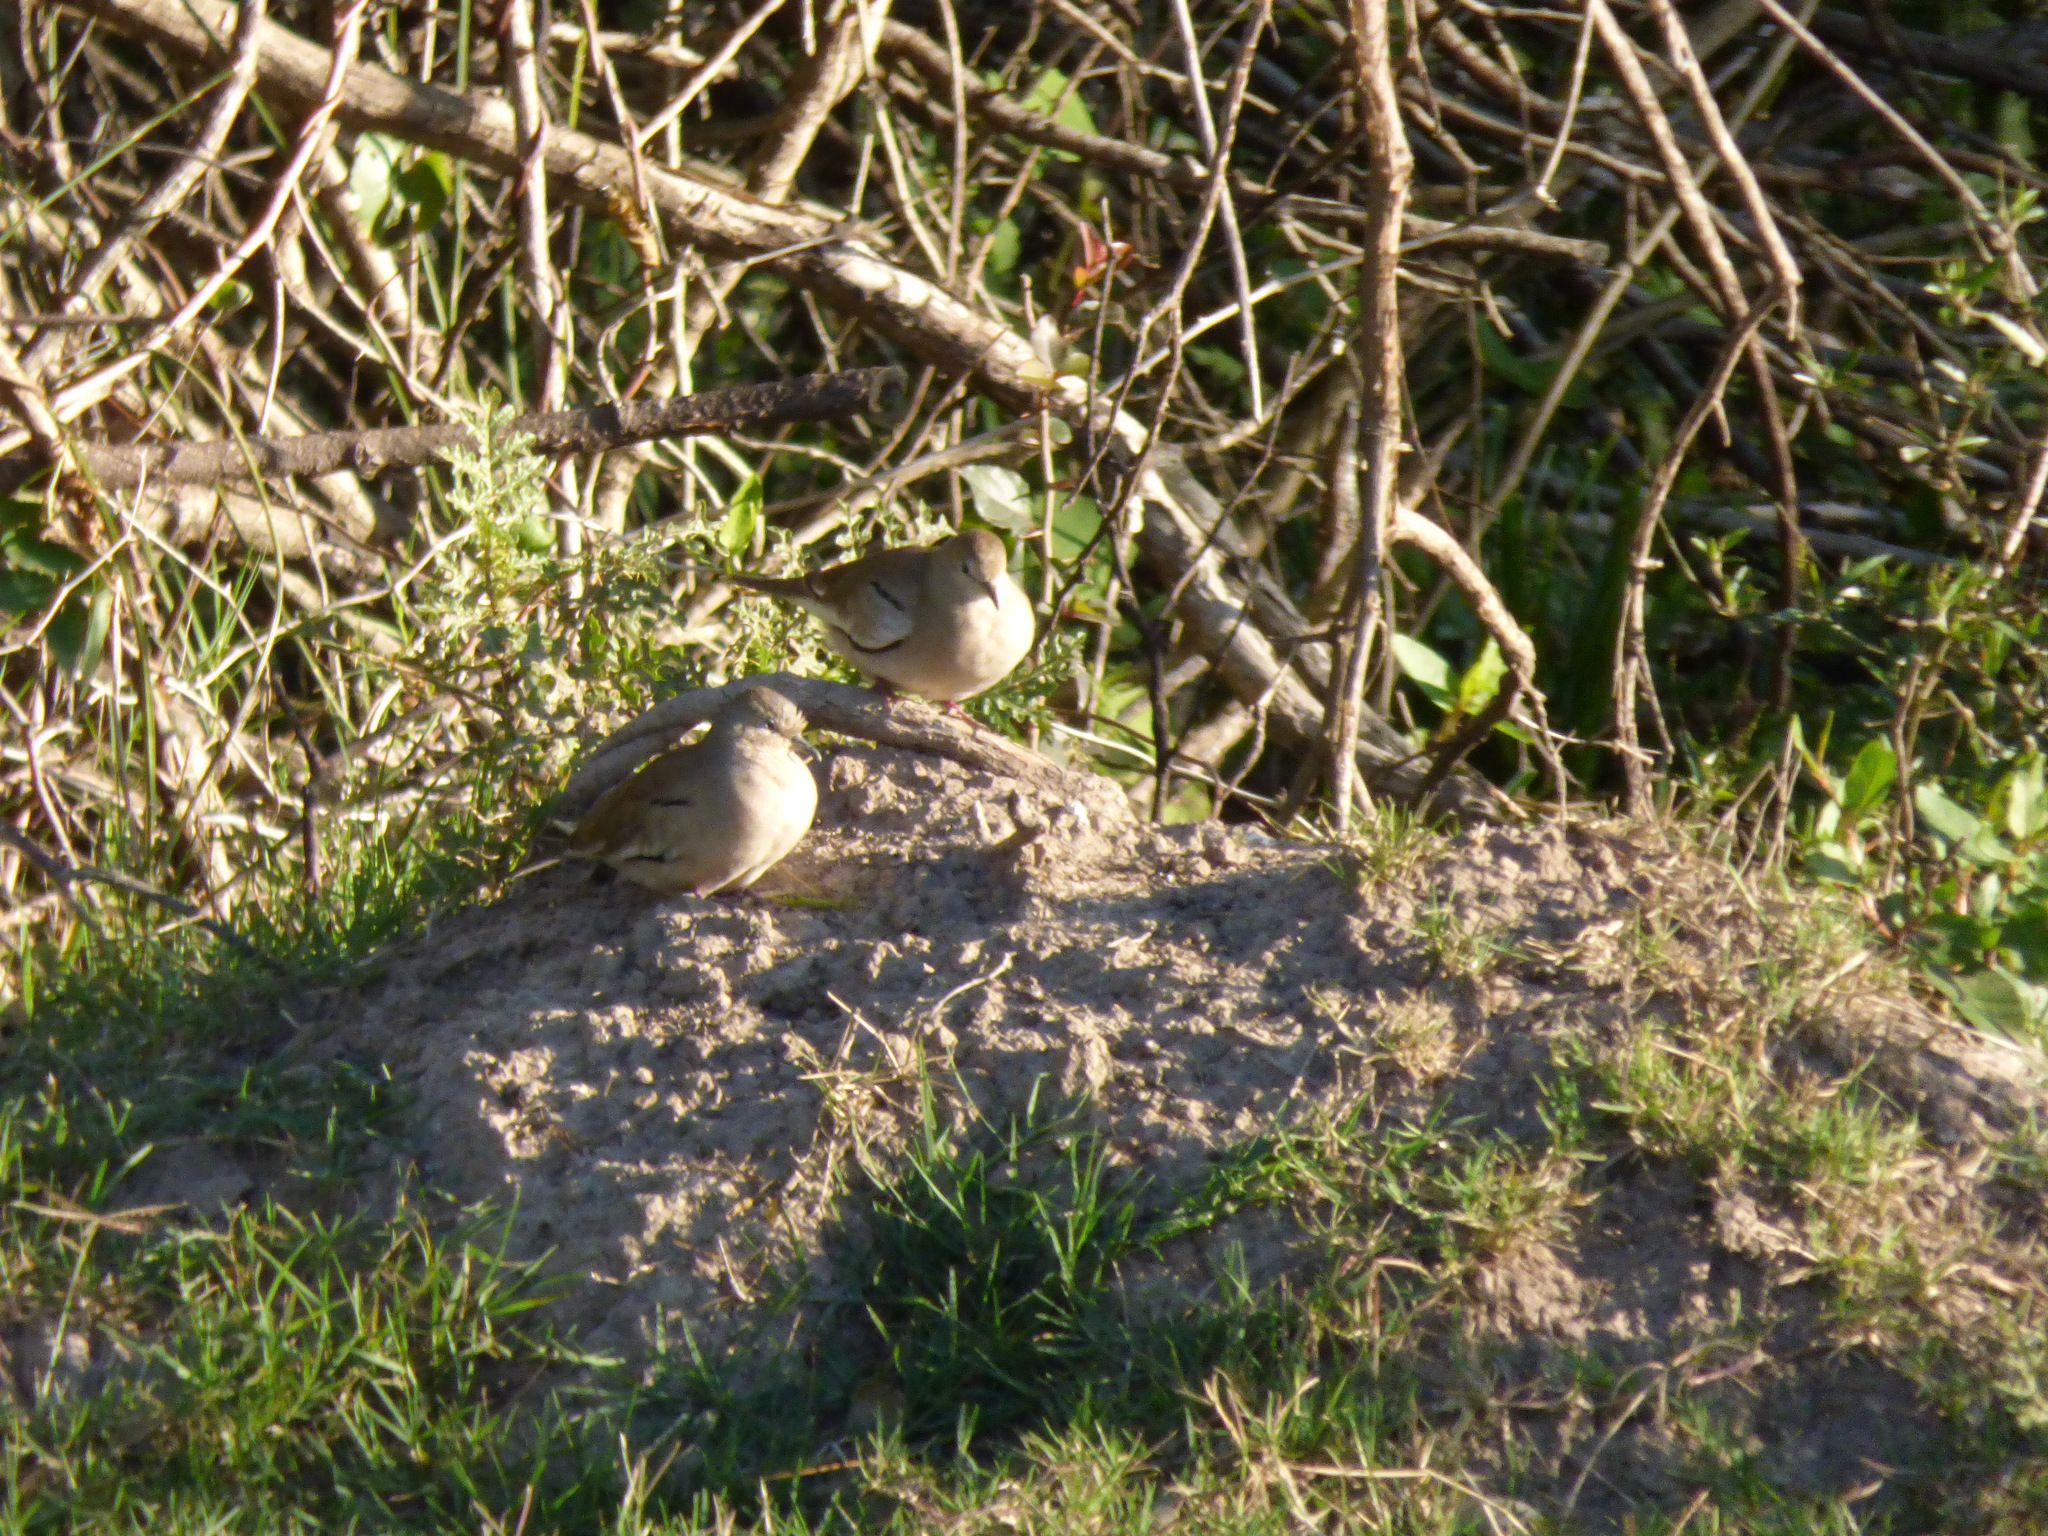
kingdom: Animalia
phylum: Chordata
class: Aves
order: Columbiformes
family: Columbidae
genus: Columbina
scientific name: Columbina picui
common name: Picui ground dove
